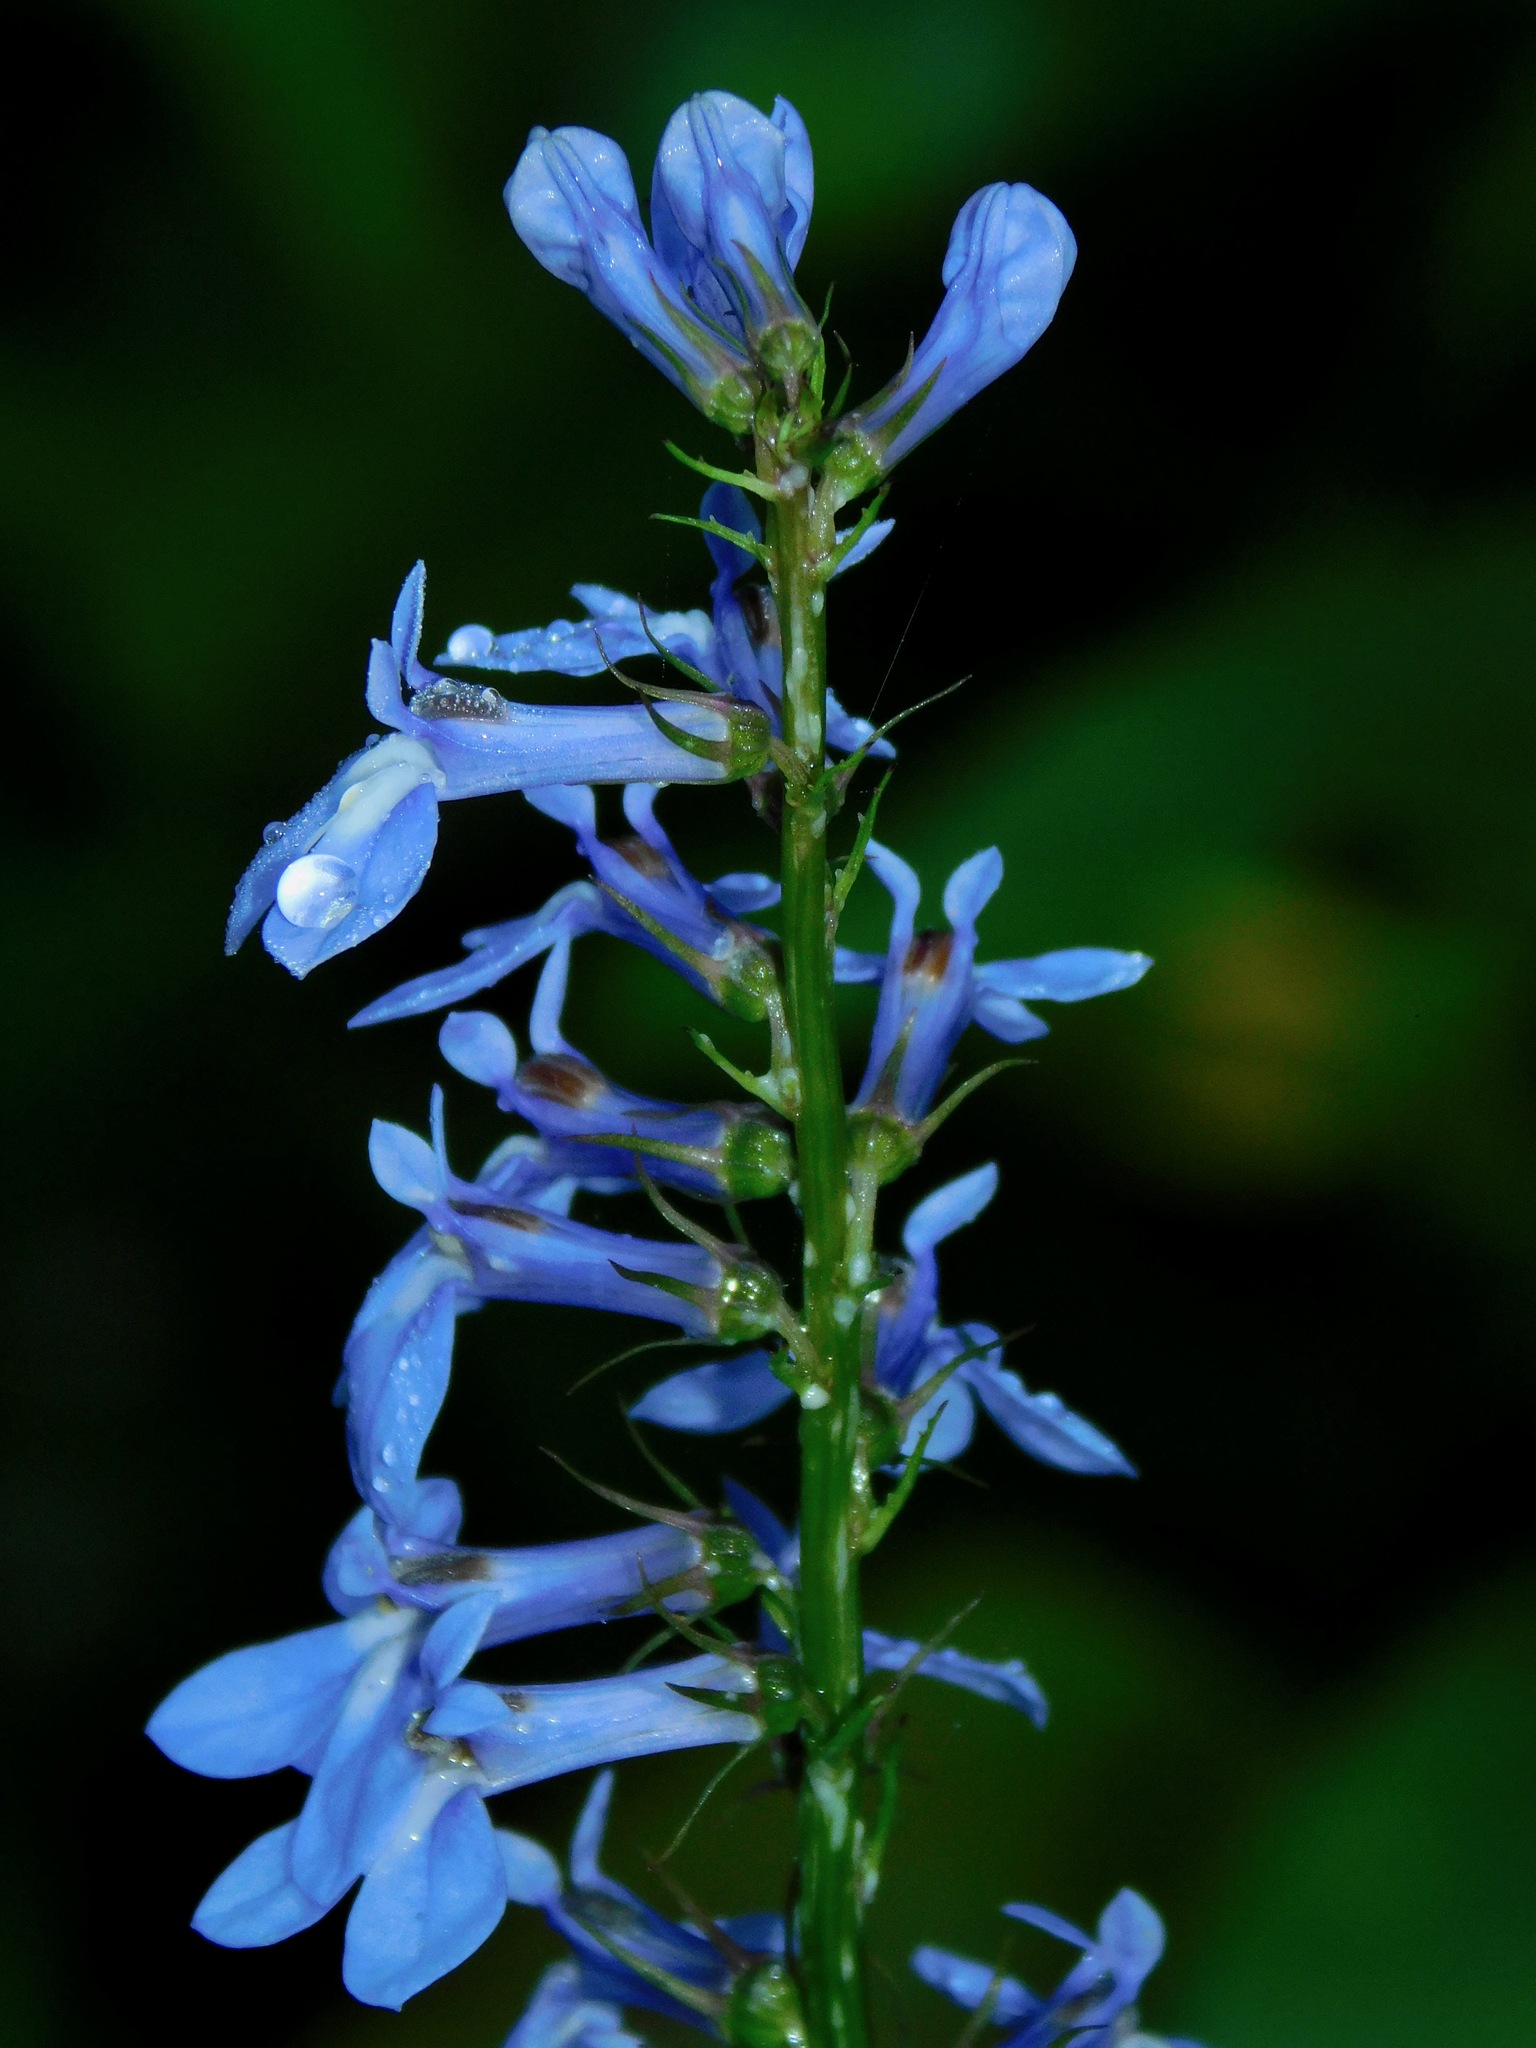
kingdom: Plantae
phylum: Tracheophyta
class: Magnoliopsida
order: Asterales
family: Campanulaceae
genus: Lobelia
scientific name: Lobelia amoena
